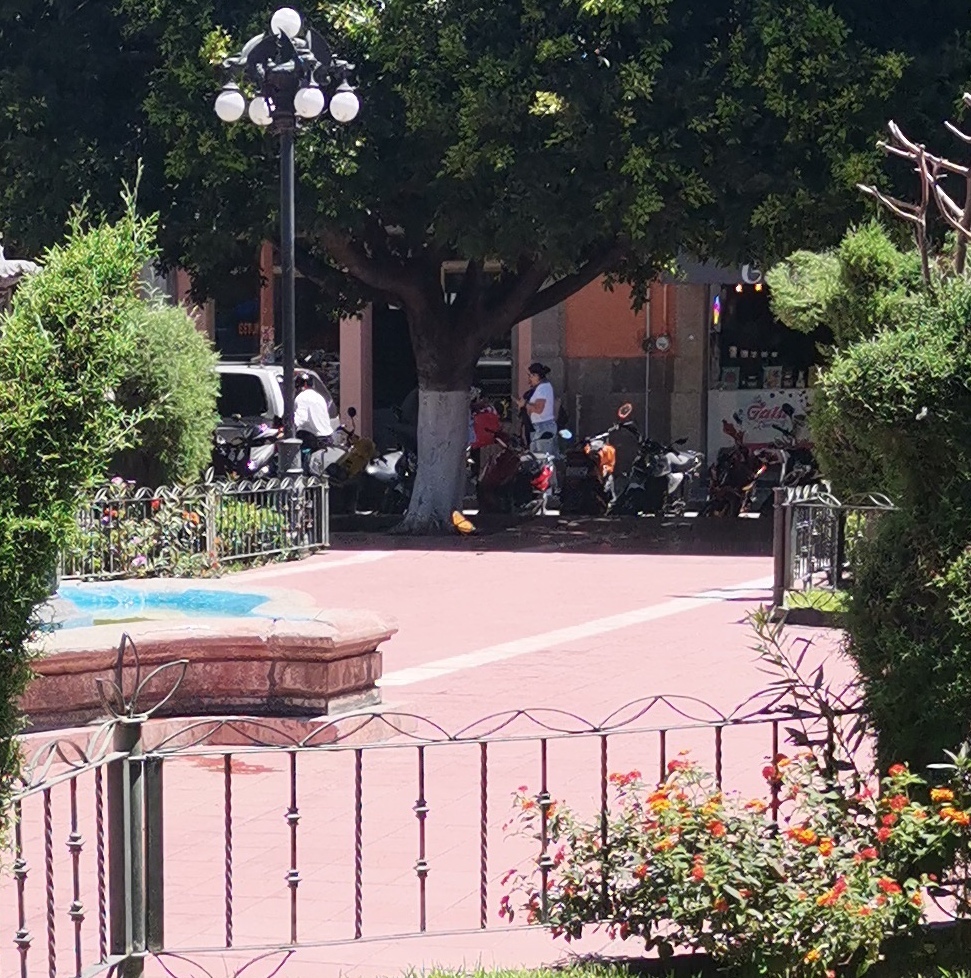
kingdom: Animalia
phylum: Arthropoda
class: Insecta
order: Lepidoptera
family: Nymphalidae
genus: Danaus
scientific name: Danaus plexippus
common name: Monarch
